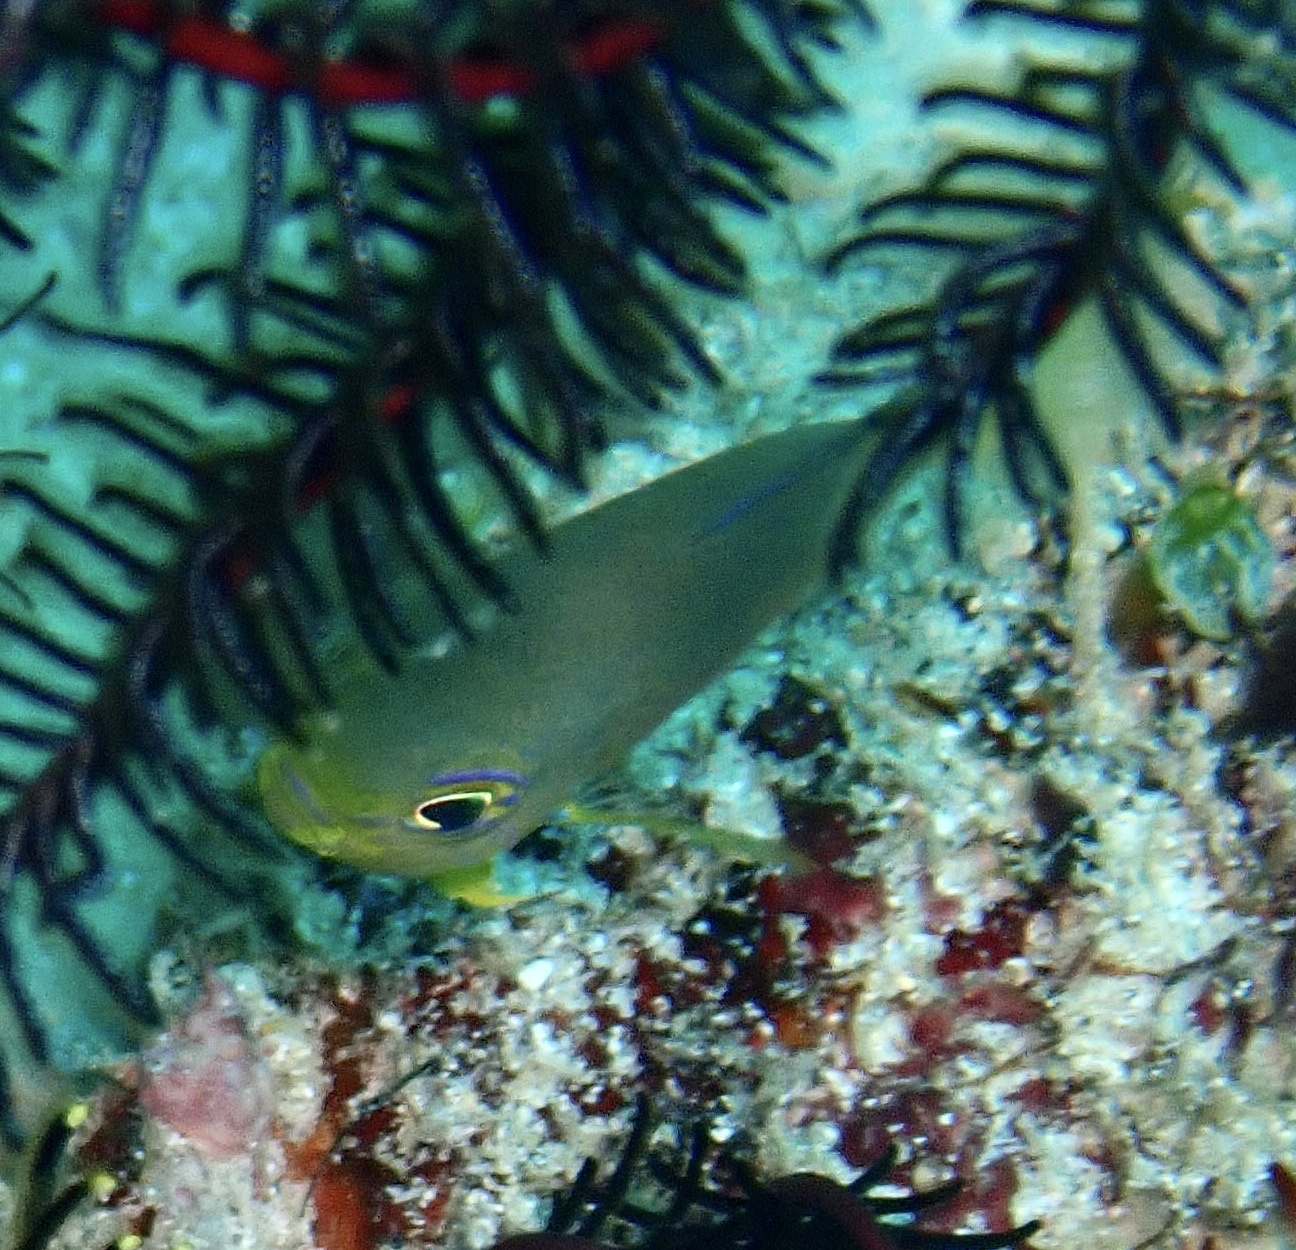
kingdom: Animalia
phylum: Chordata
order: Perciformes
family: Pomacentridae
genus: Pomacentrus
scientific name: Pomacentrus amboinensis
